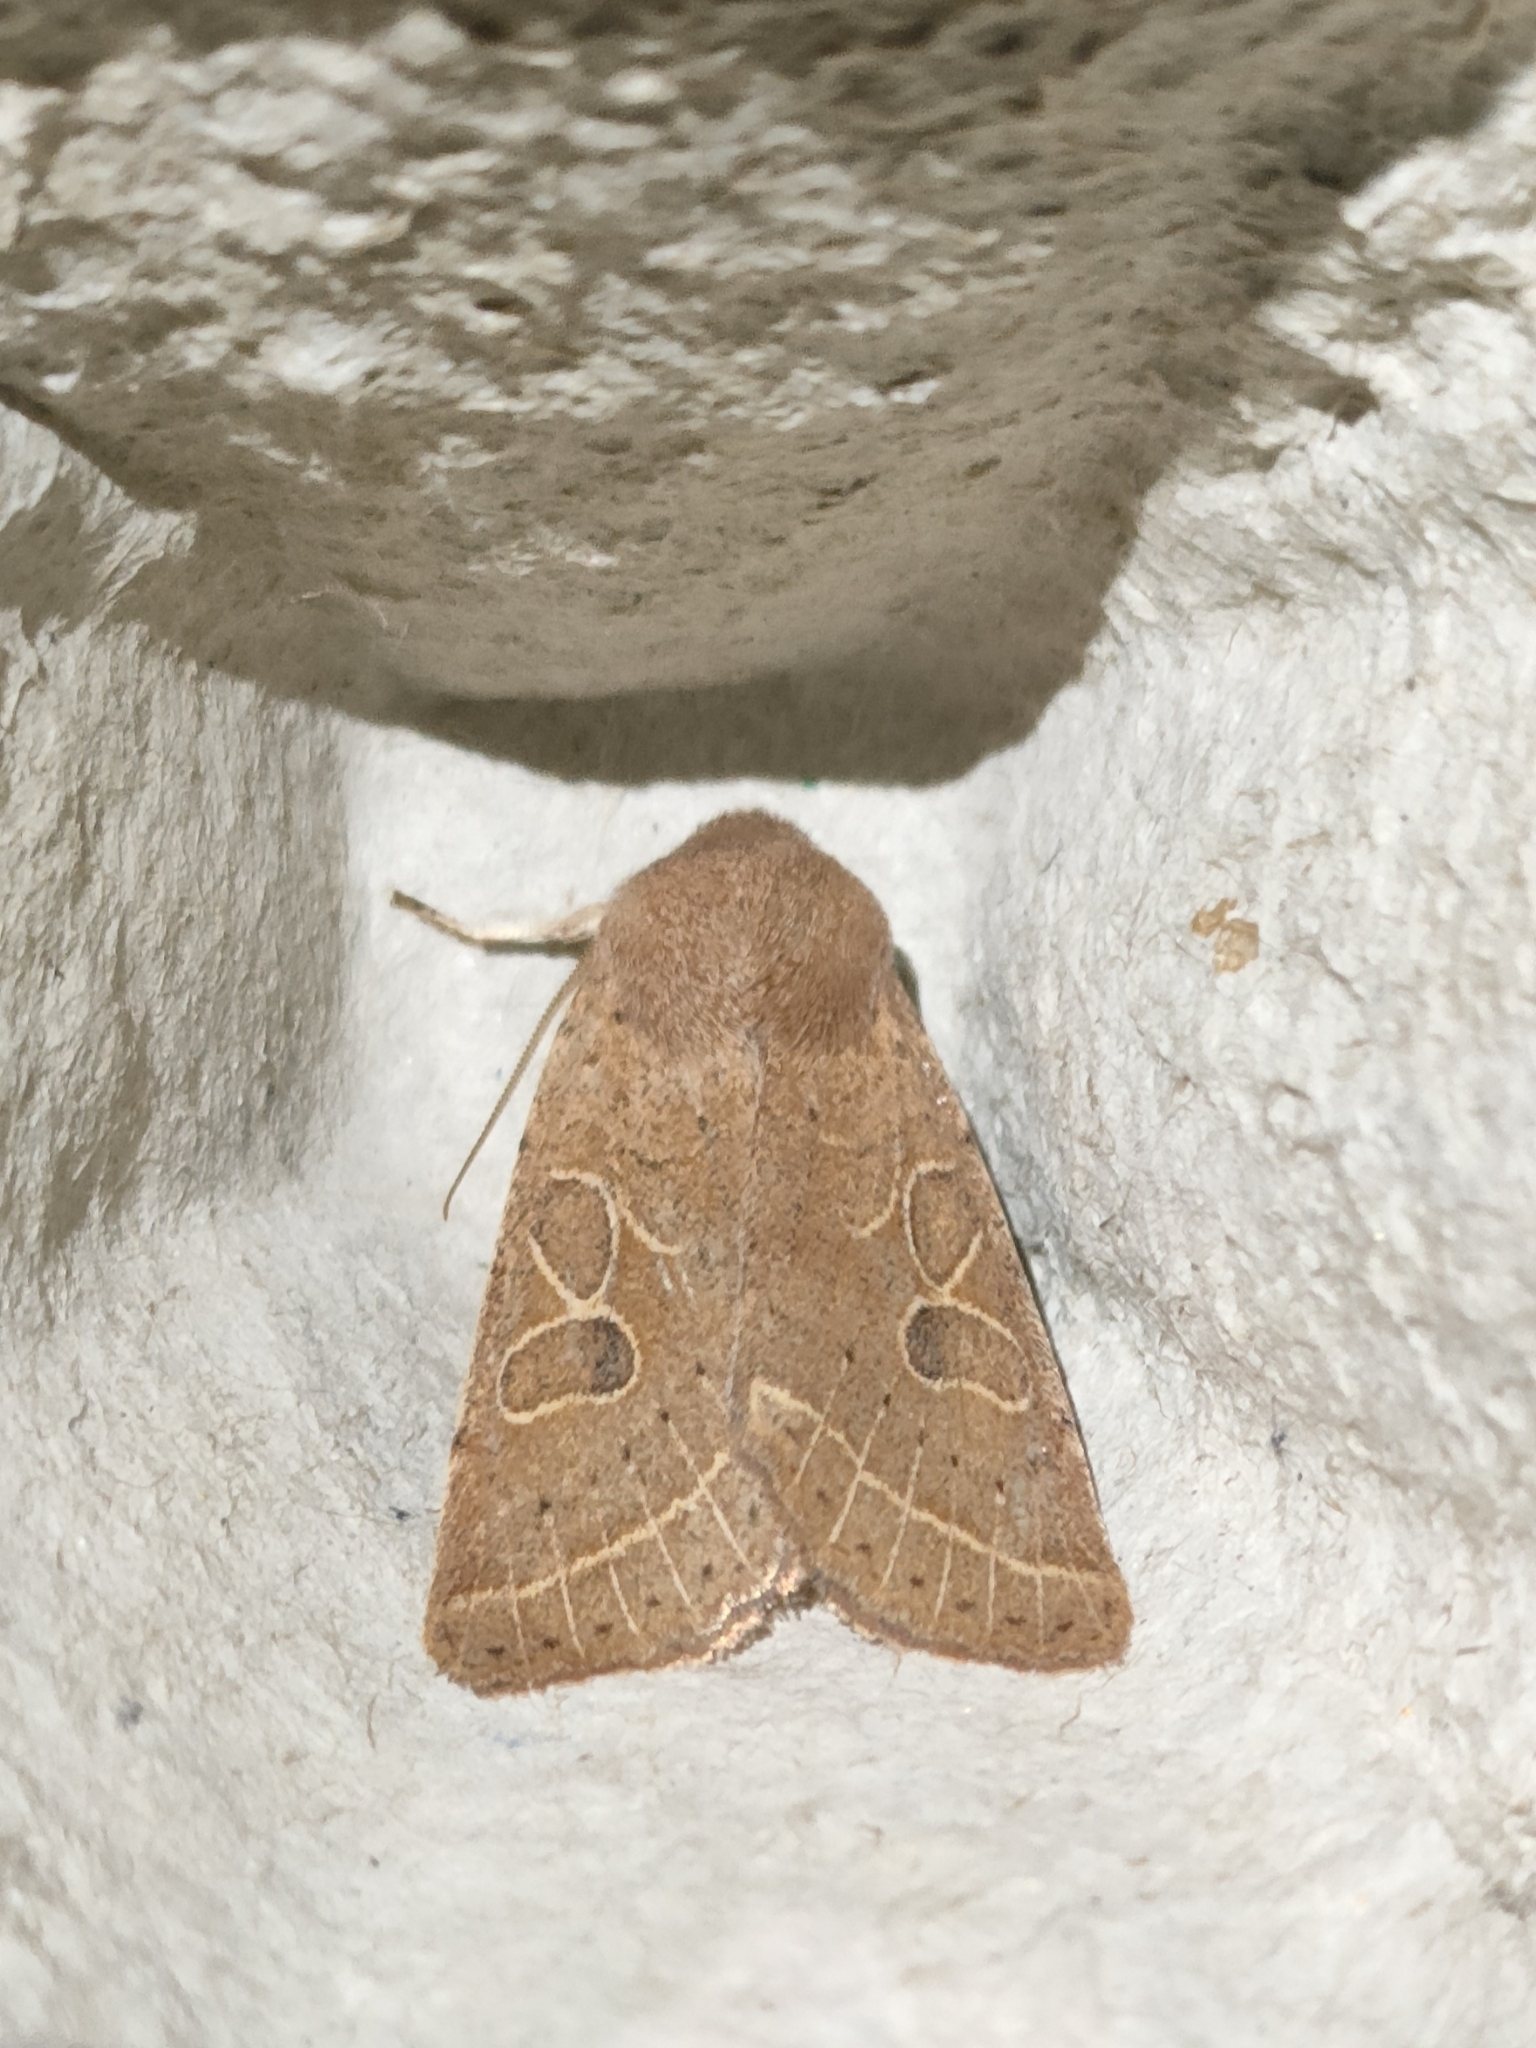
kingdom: Animalia
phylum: Arthropoda
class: Insecta
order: Lepidoptera
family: Noctuidae
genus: Orthosia
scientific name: Orthosia cerasi
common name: Common quaker
